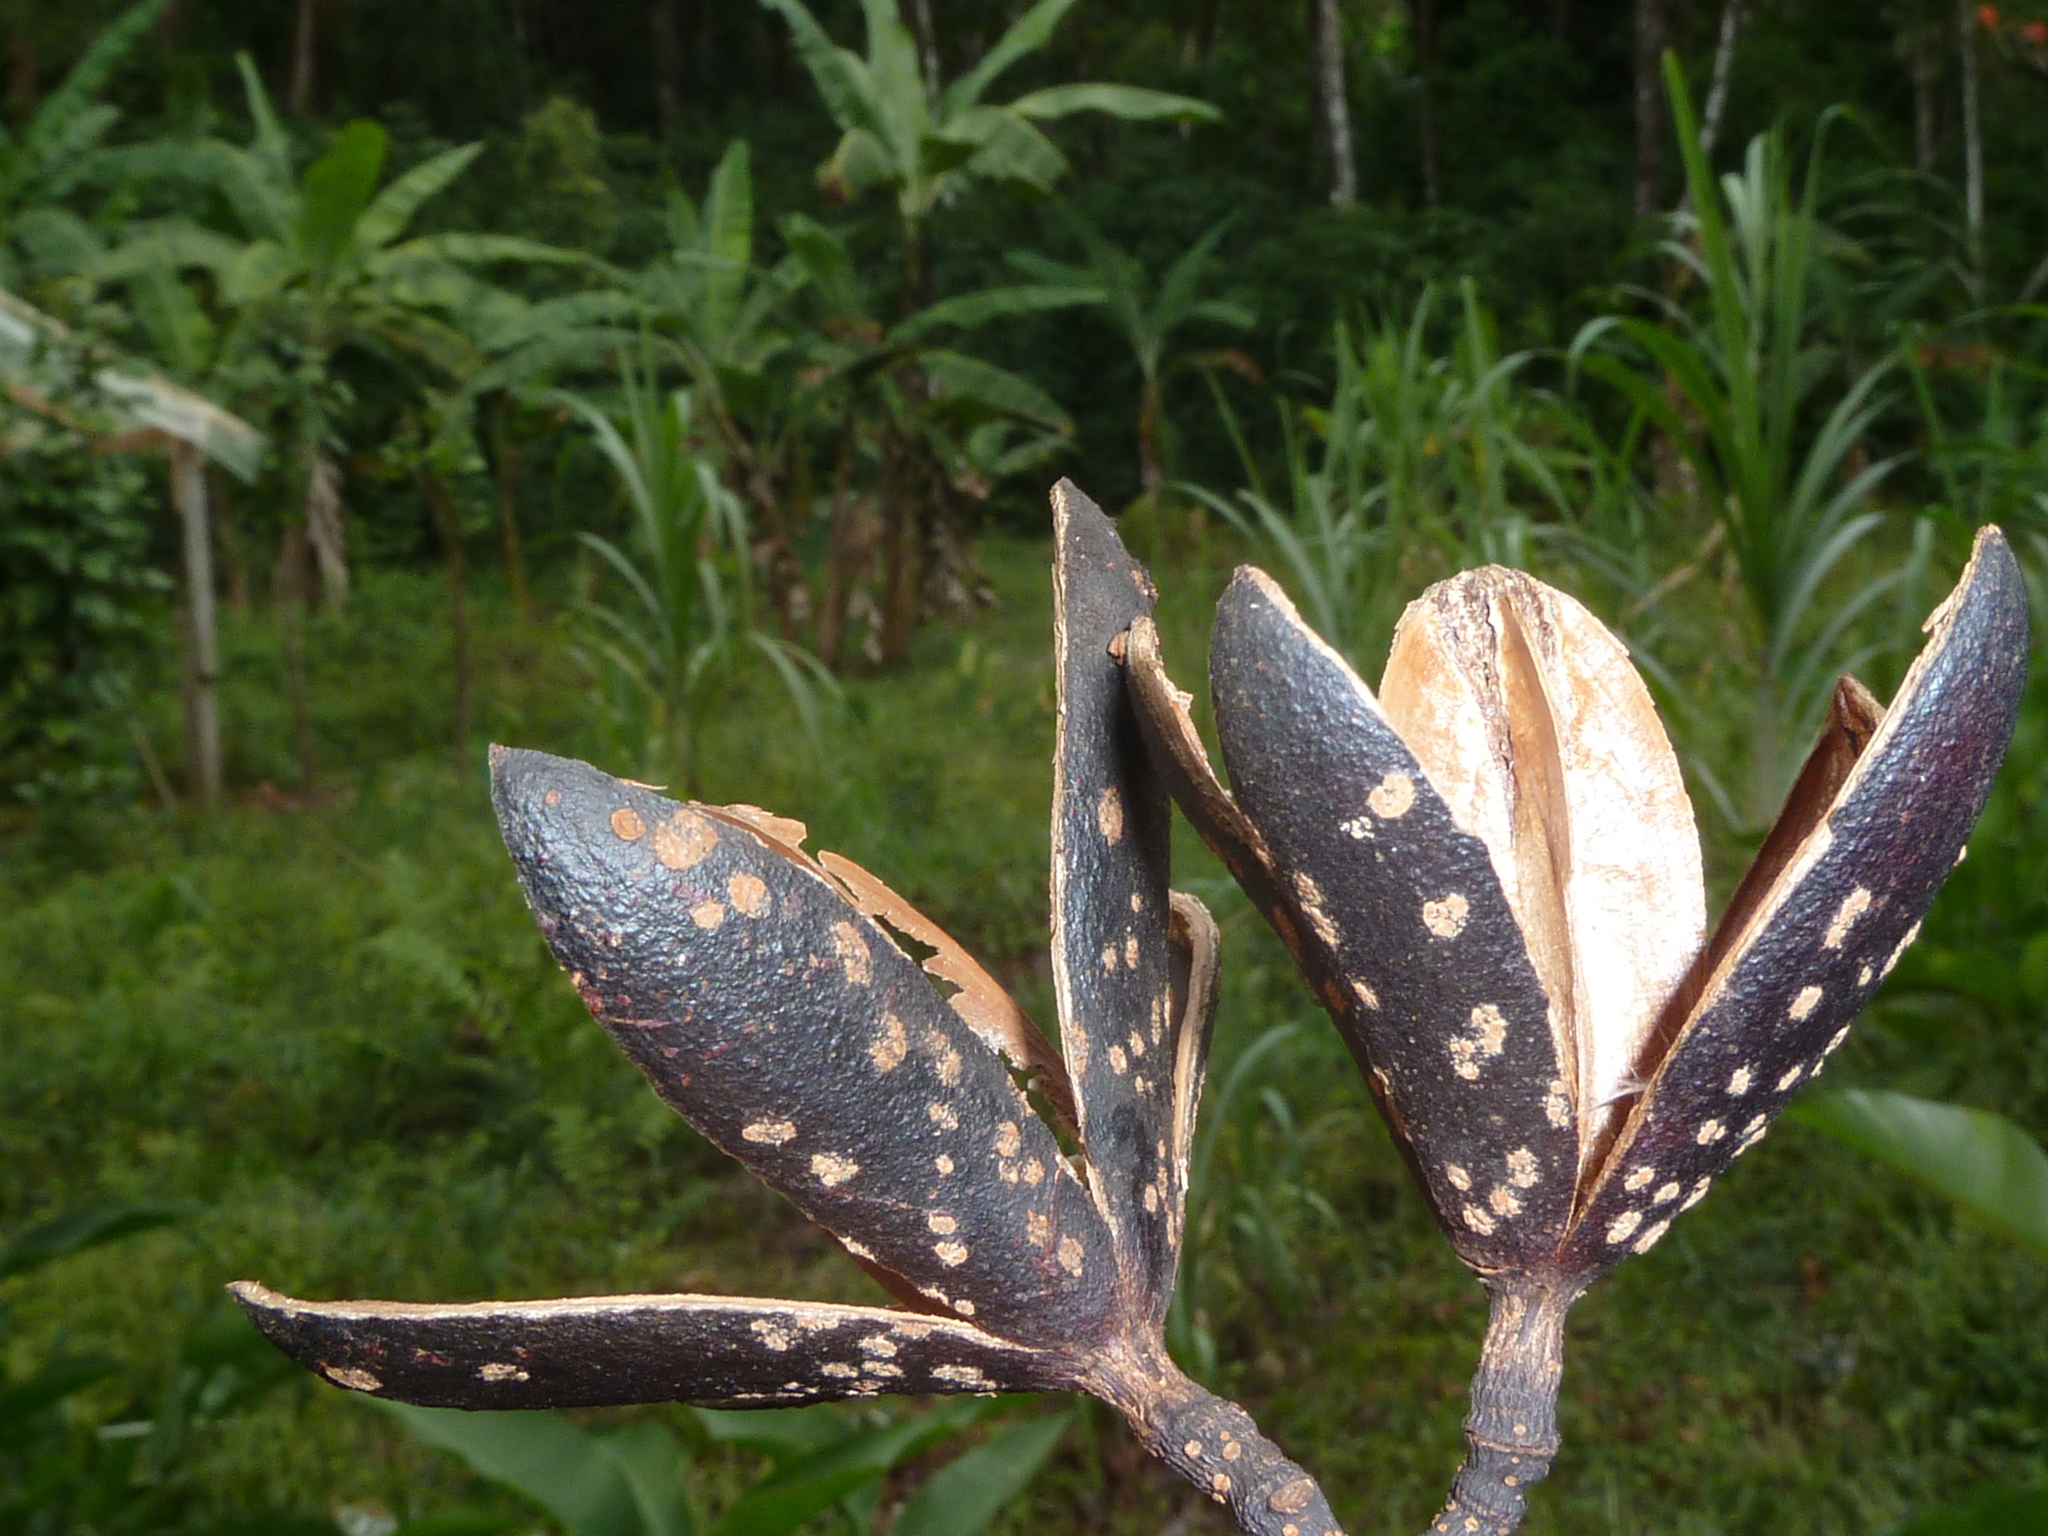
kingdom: Plantae
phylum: Tracheophyta
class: Magnoliopsida
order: Sapindales
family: Meliaceae
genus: Cedrela
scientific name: Cedrela odorata
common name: Red cedar
